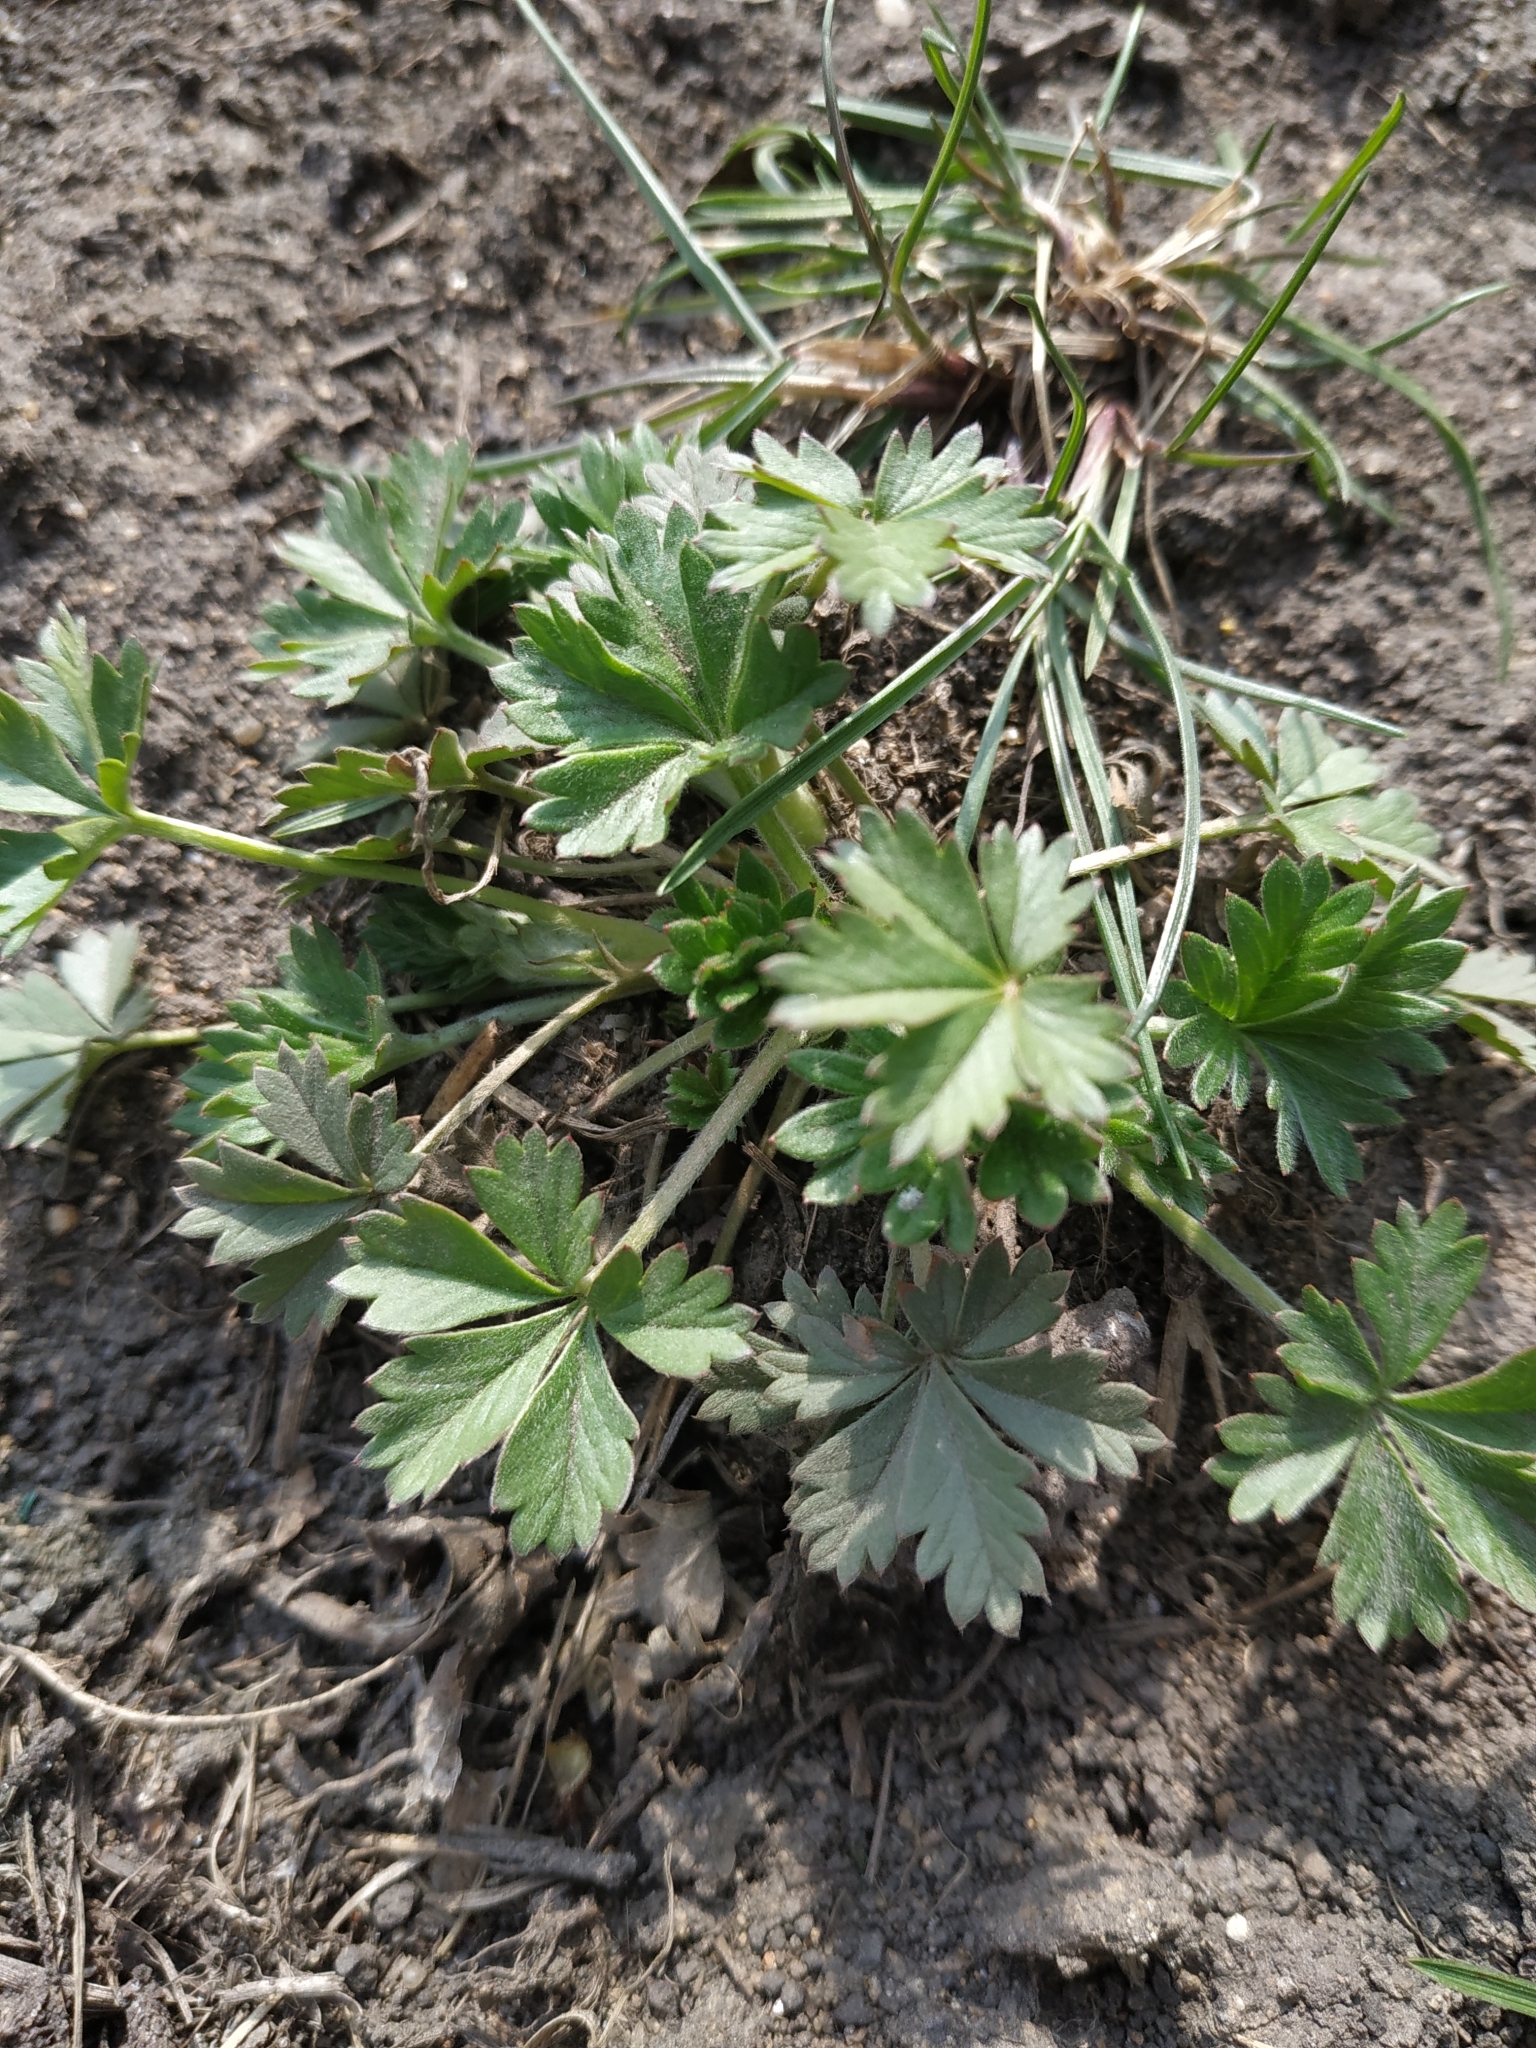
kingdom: Plantae
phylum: Tracheophyta
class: Magnoliopsida
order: Rosales
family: Rosaceae
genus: Potentilla
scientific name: Potentilla argentea
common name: Hoary cinquefoil
